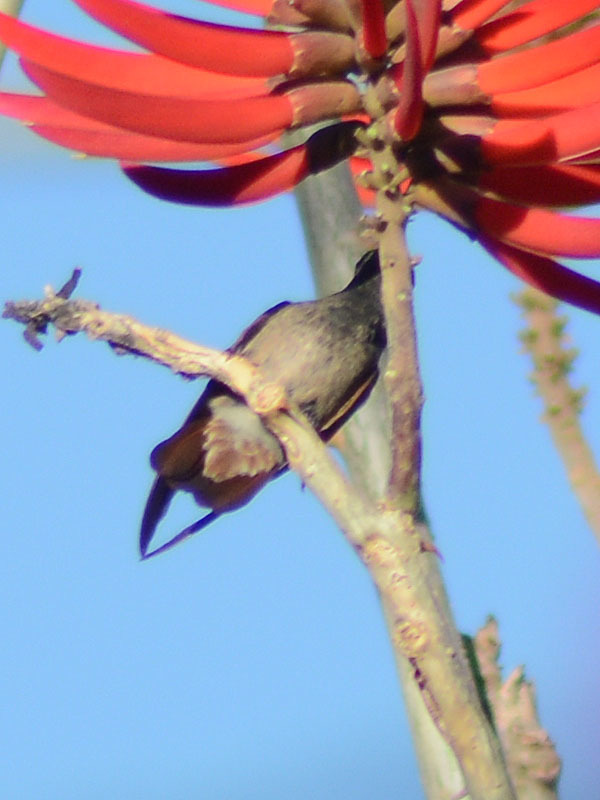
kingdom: Animalia
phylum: Chordata
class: Aves
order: Apodiformes
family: Trochilidae
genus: Saucerottia
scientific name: Saucerottia beryllina
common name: Berylline hummingbird
